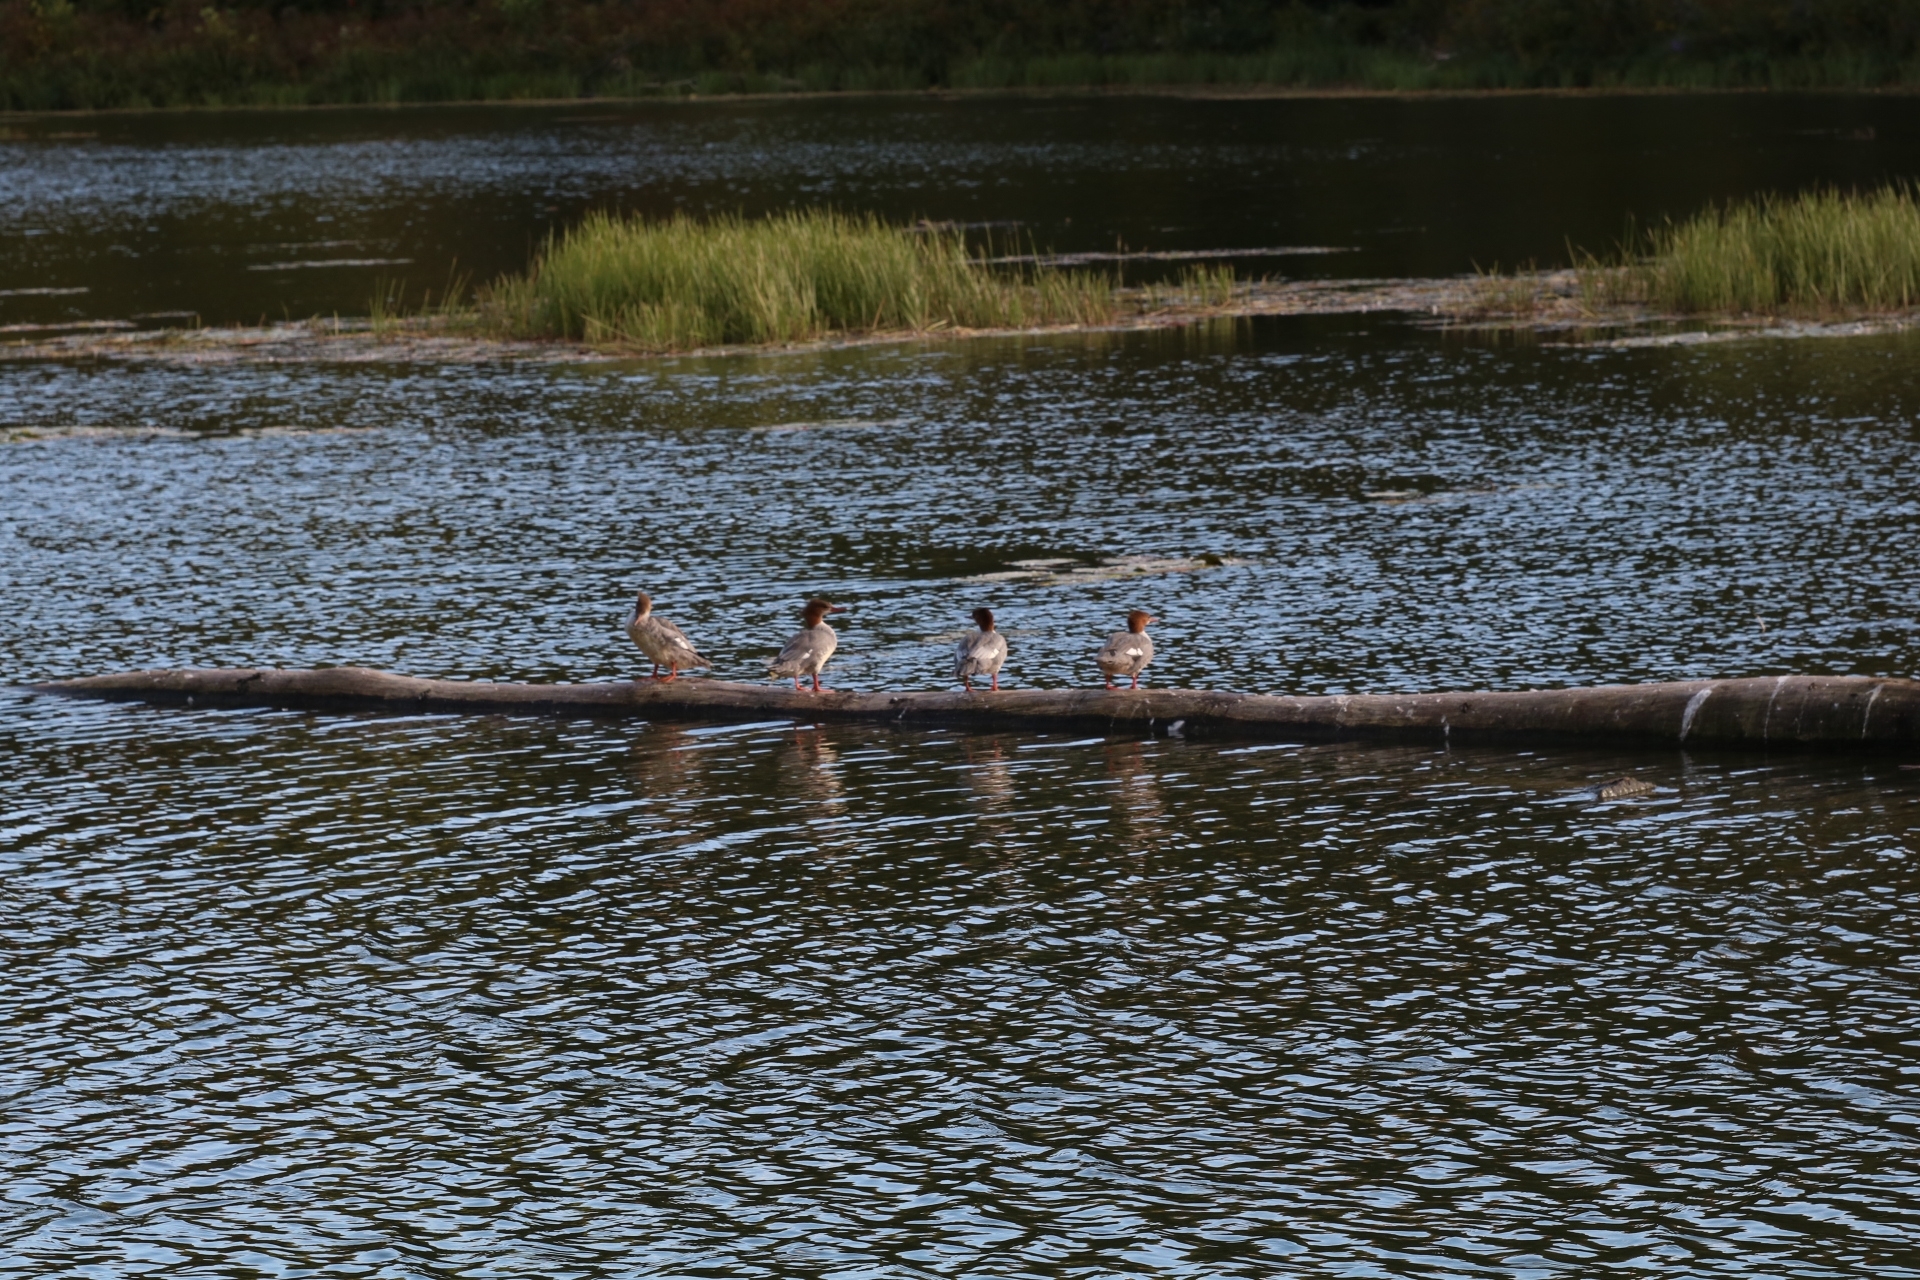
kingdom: Animalia
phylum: Chordata
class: Aves
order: Anseriformes
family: Anatidae
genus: Mergus
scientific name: Mergus merganser
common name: Common merganser
